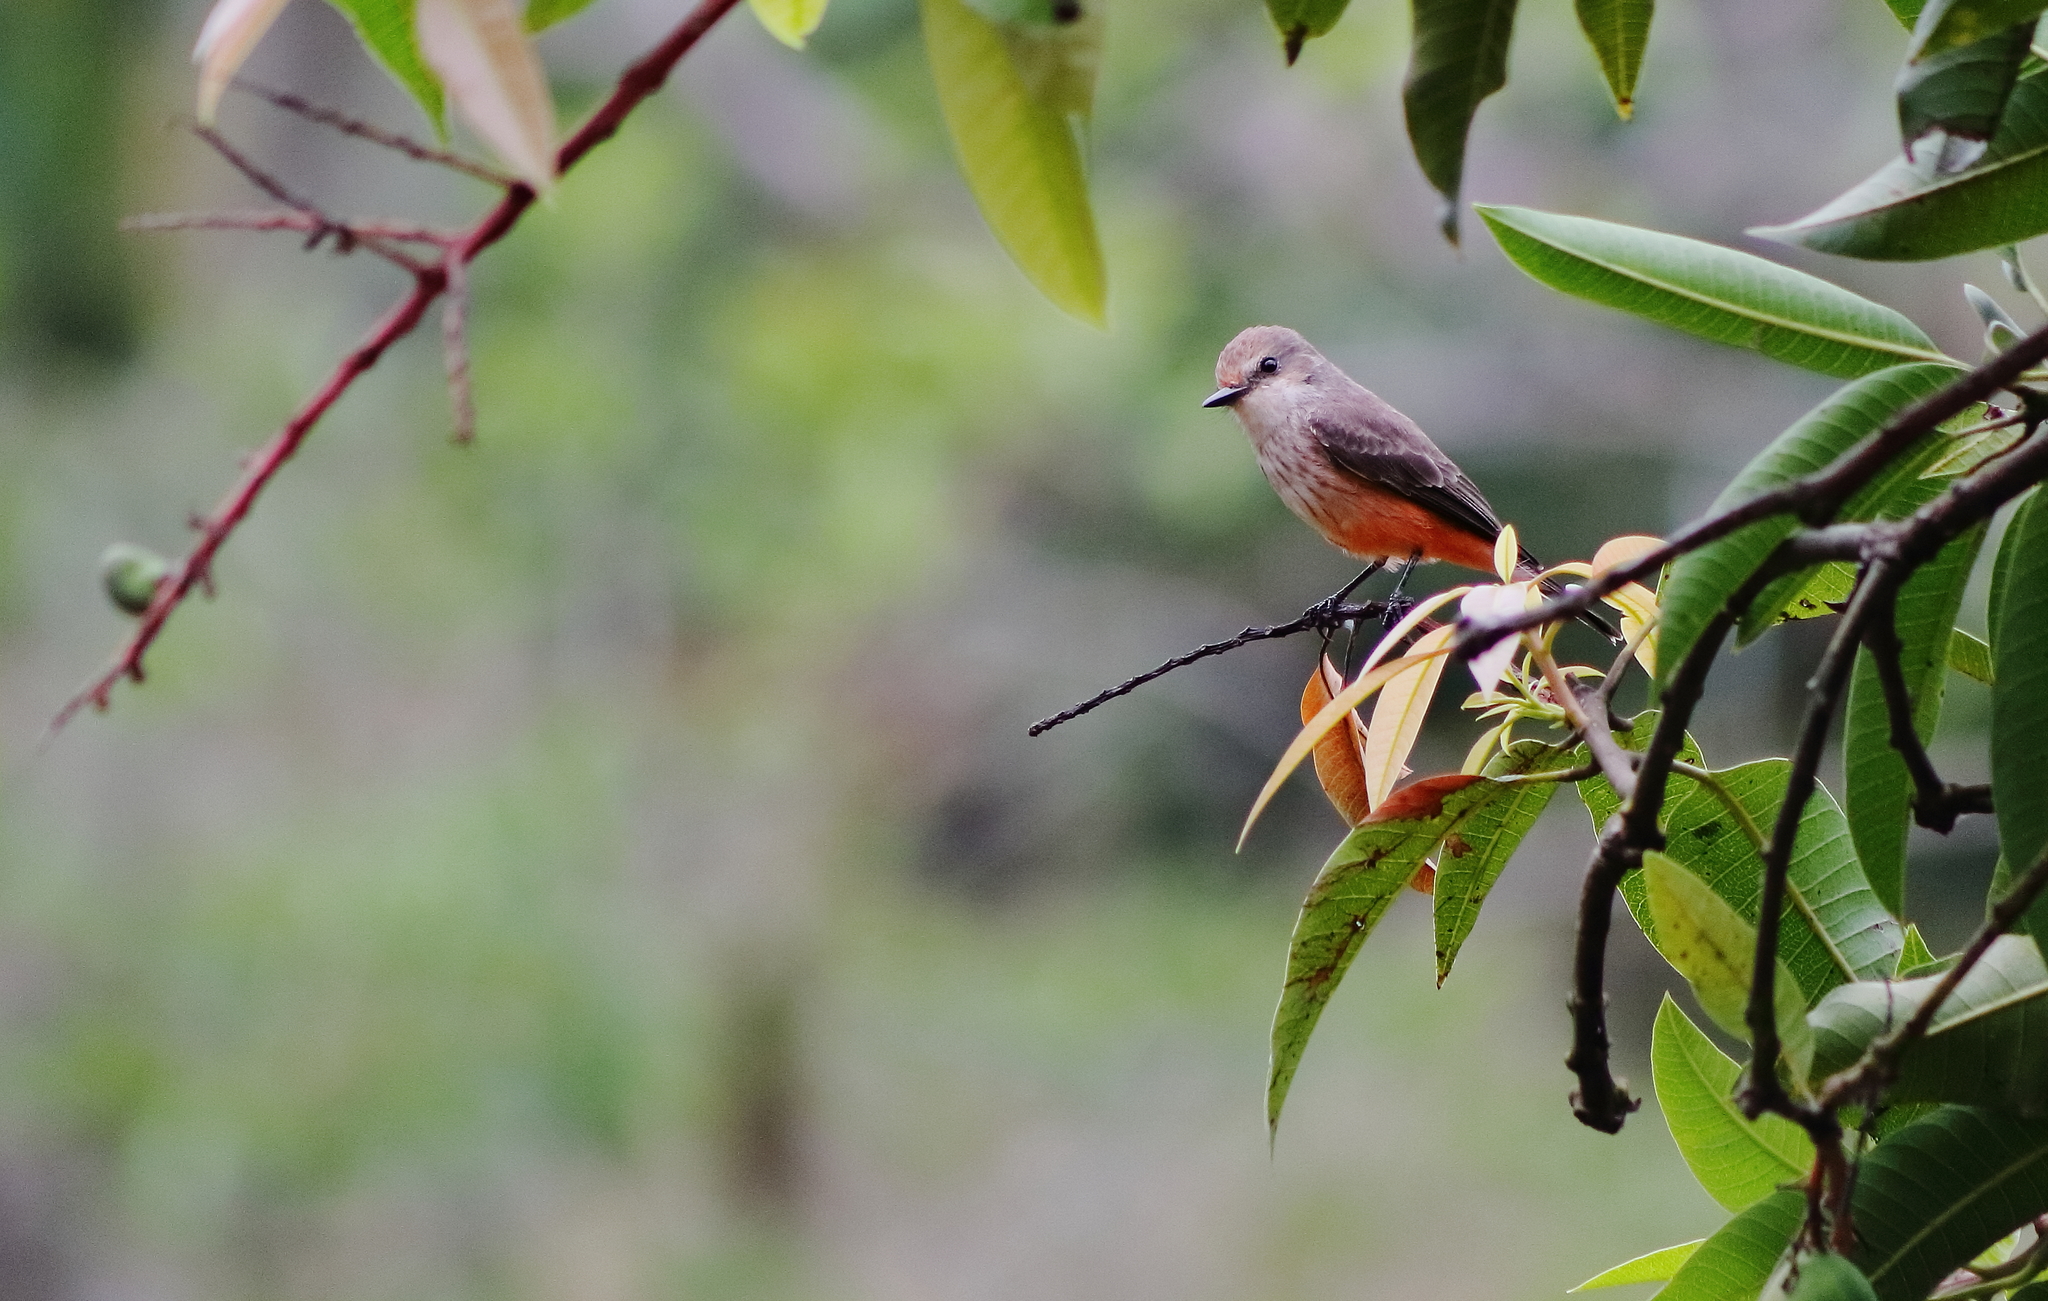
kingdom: Animalia
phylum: Chordata
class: Aves
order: Passeriformes
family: Tyrannidae
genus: Pyrocephalus
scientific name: Pyrocephalus rubinus
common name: Vermilion flycatcher
